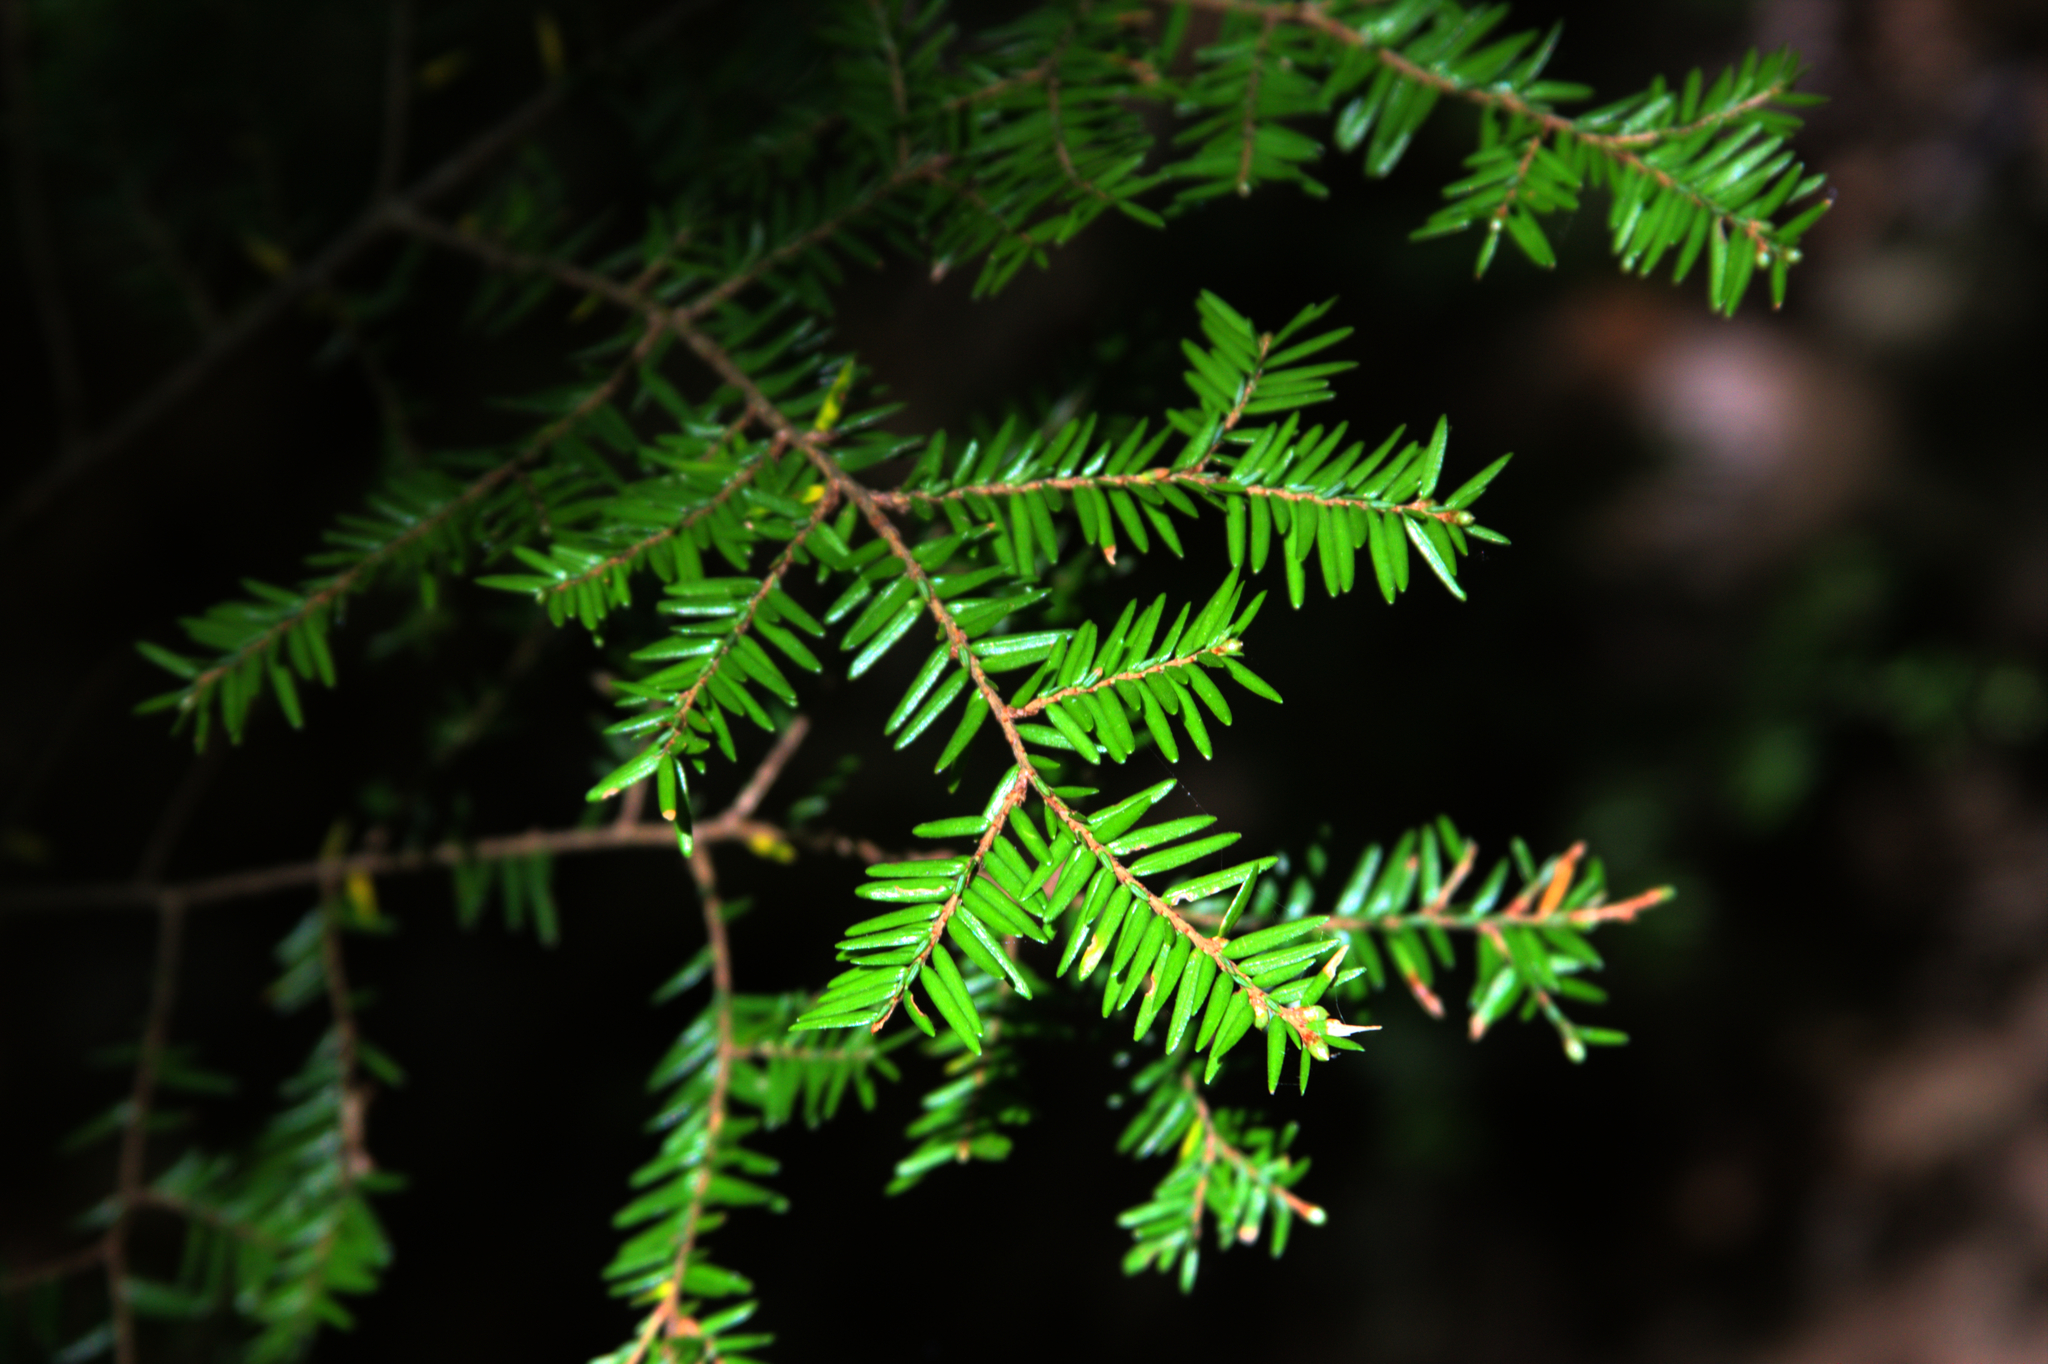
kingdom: Plantae
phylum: Tracheophyta
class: Pinopsida
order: Pinales
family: Pinaceae
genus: Tsuga
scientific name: Tsuga canadensis
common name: Eastern hemlock
